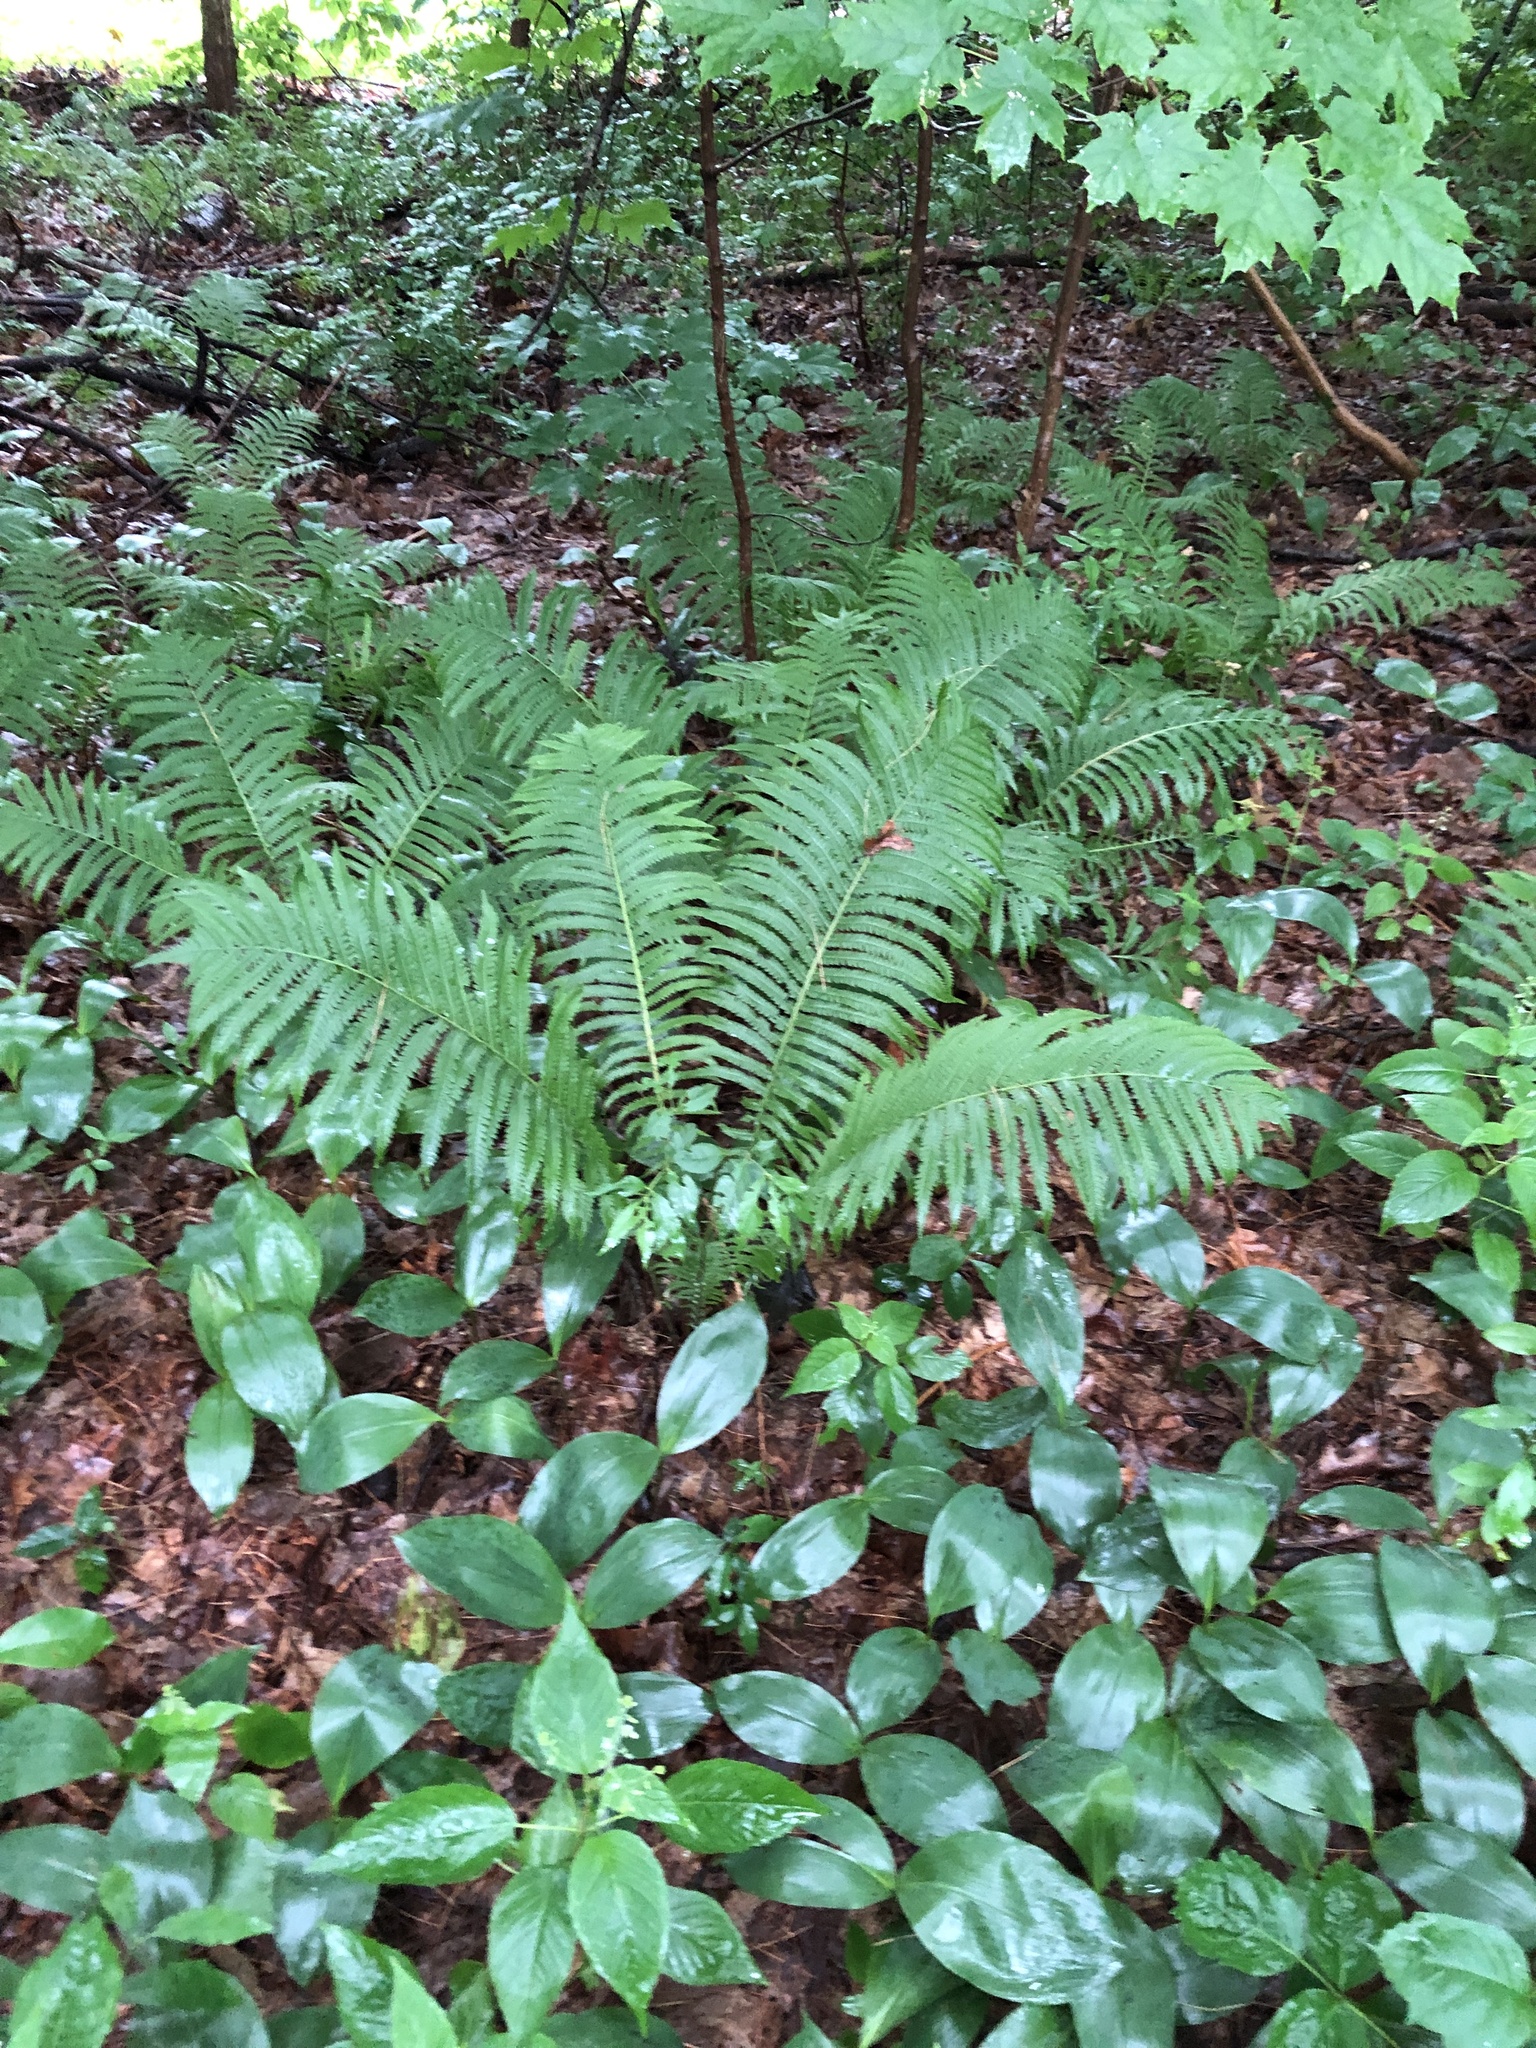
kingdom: Plantae
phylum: Tracheophyta
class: Polypodiopsida
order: Osmundales
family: Osmundaceae
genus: Osmundastrum
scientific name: Osmundastrum cinnamomeum
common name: Cinnamon fern
